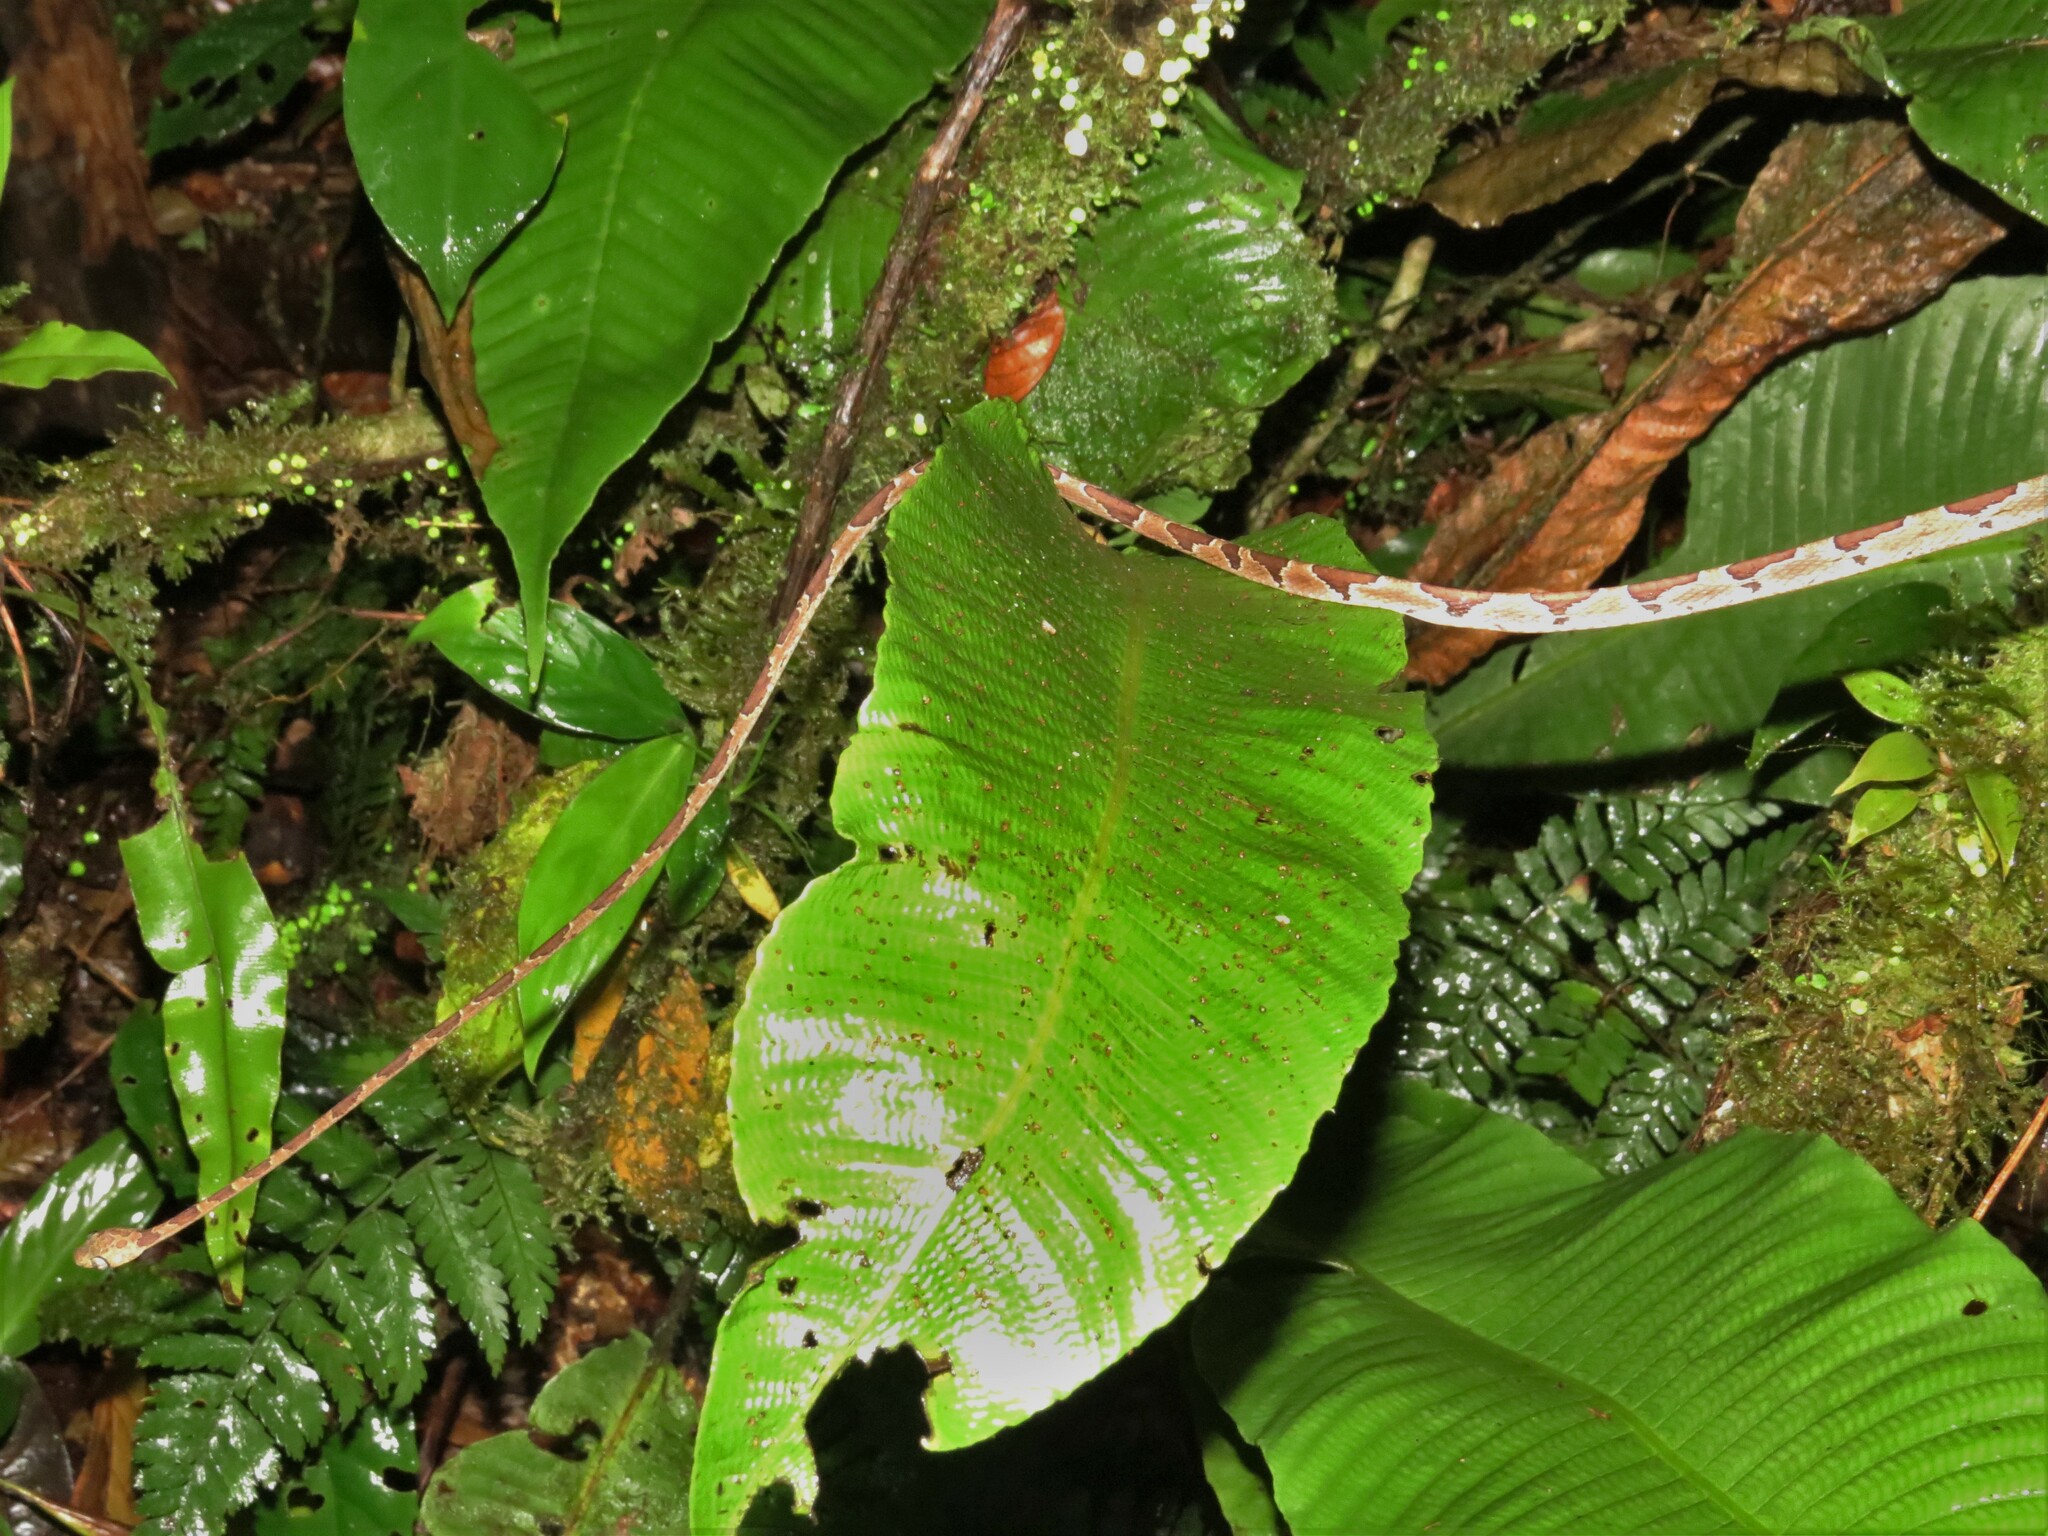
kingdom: Animalia
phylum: Chordata
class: Squamata
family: Colubridae
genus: Imantodes
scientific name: Imantodes cenchoa
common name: Blunthead tree snake
